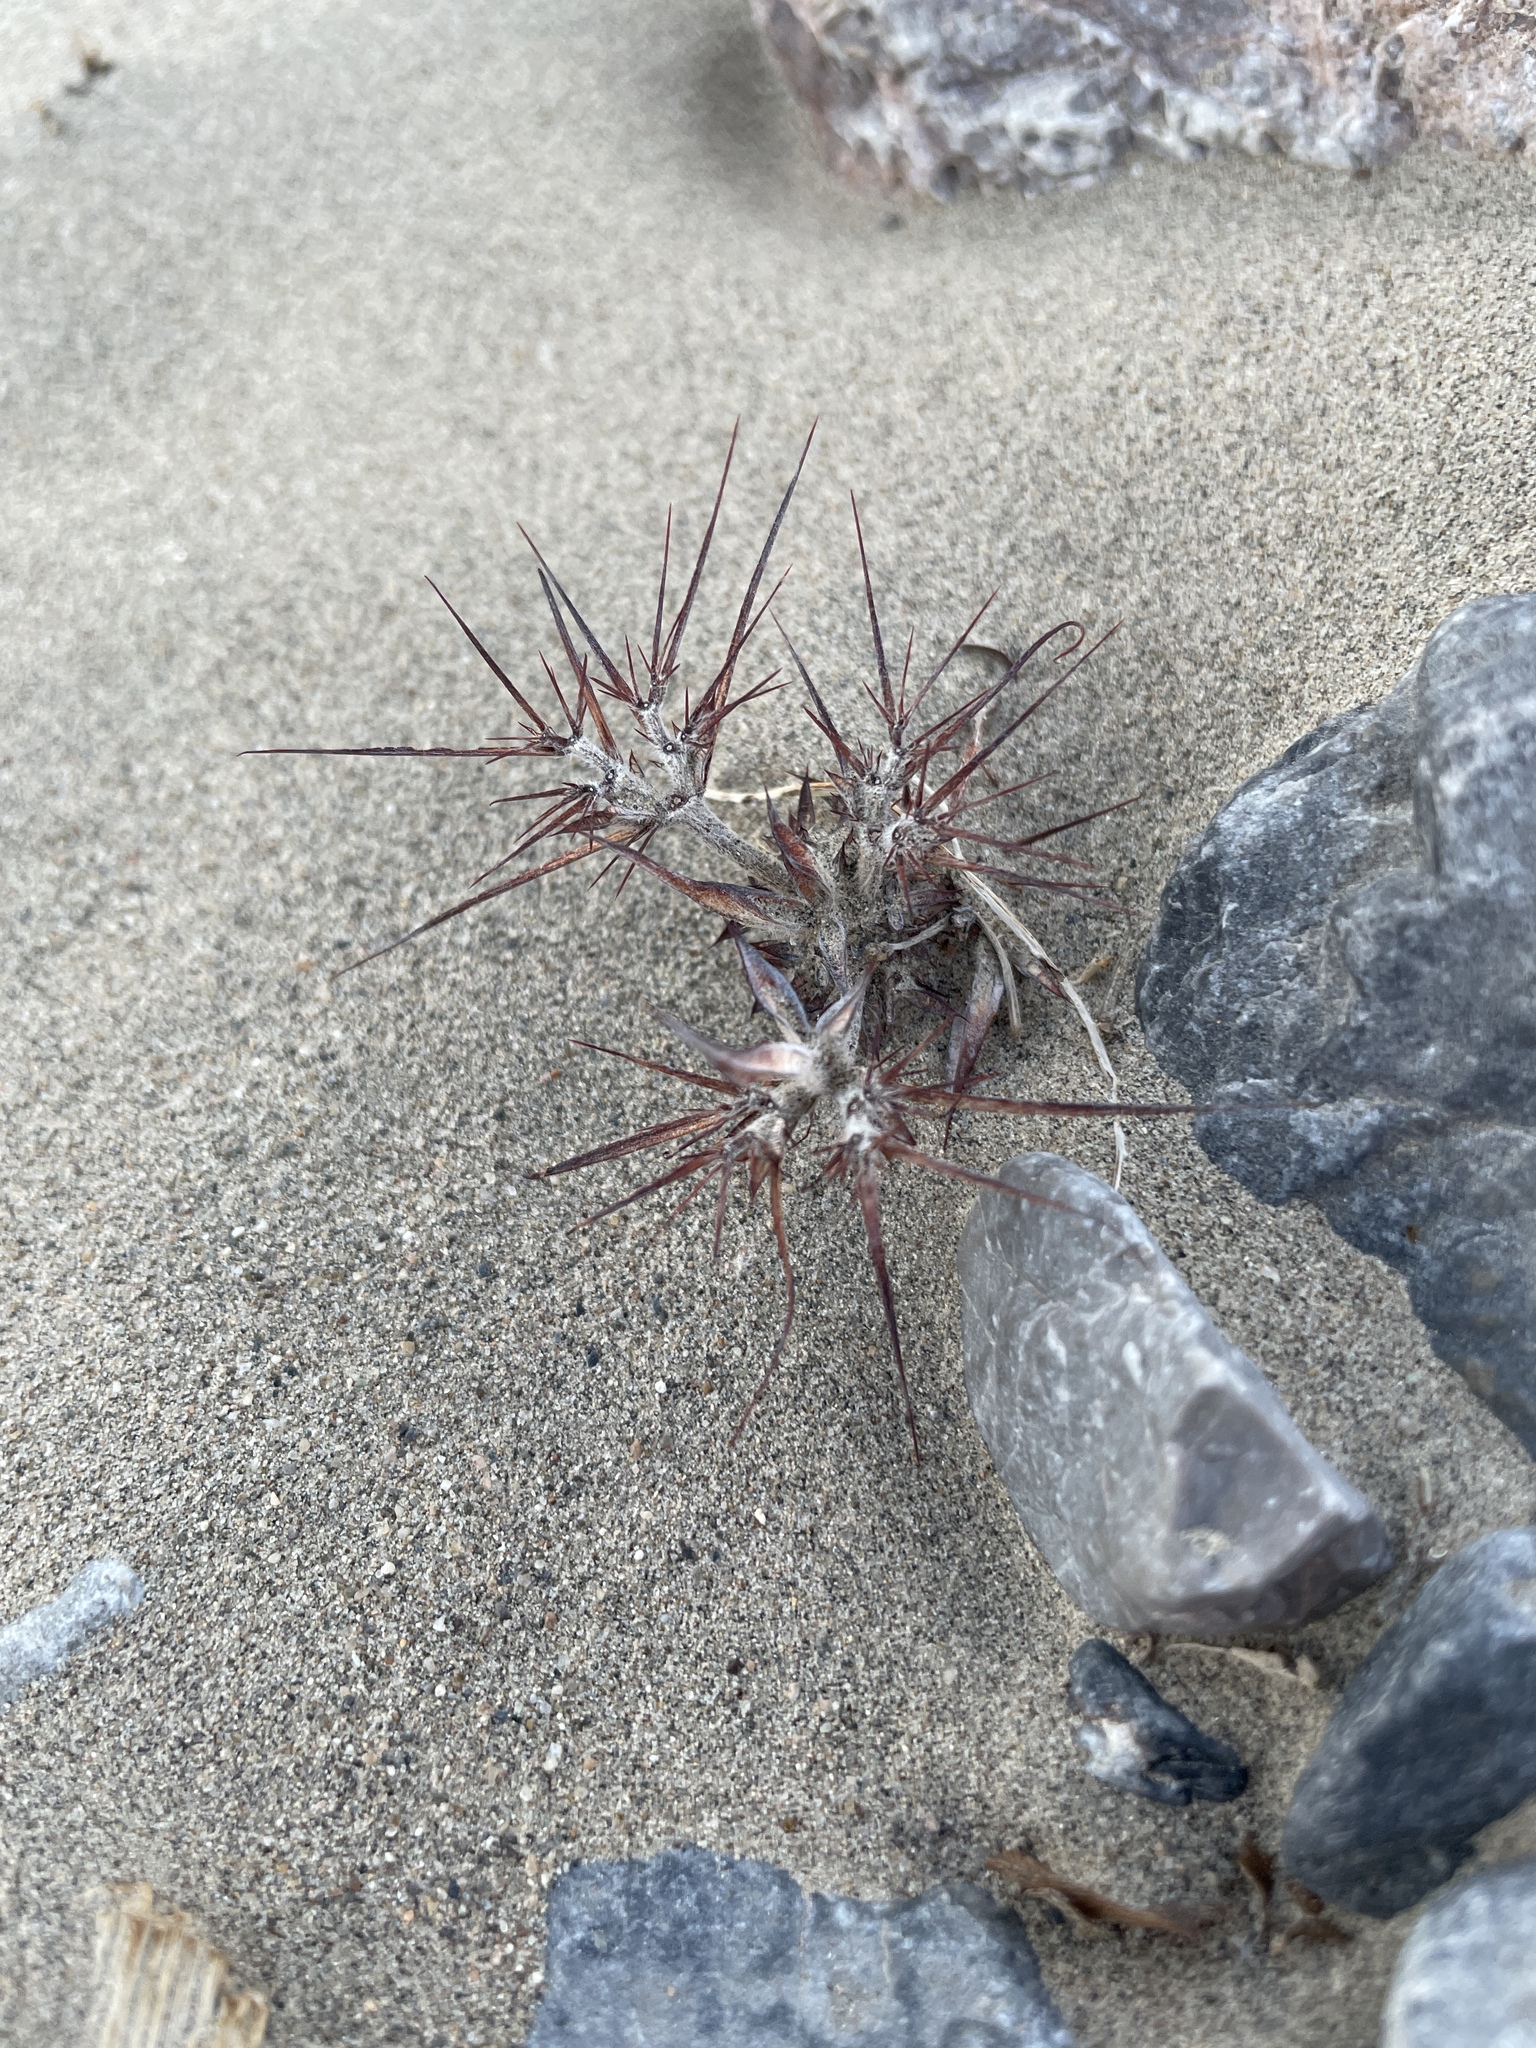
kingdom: Plantae
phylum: Tracheophyta
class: Magnoliopsida
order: Caryophyllales
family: Polygonaceae
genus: Chorizanthe
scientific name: Chorizanthe rigida
